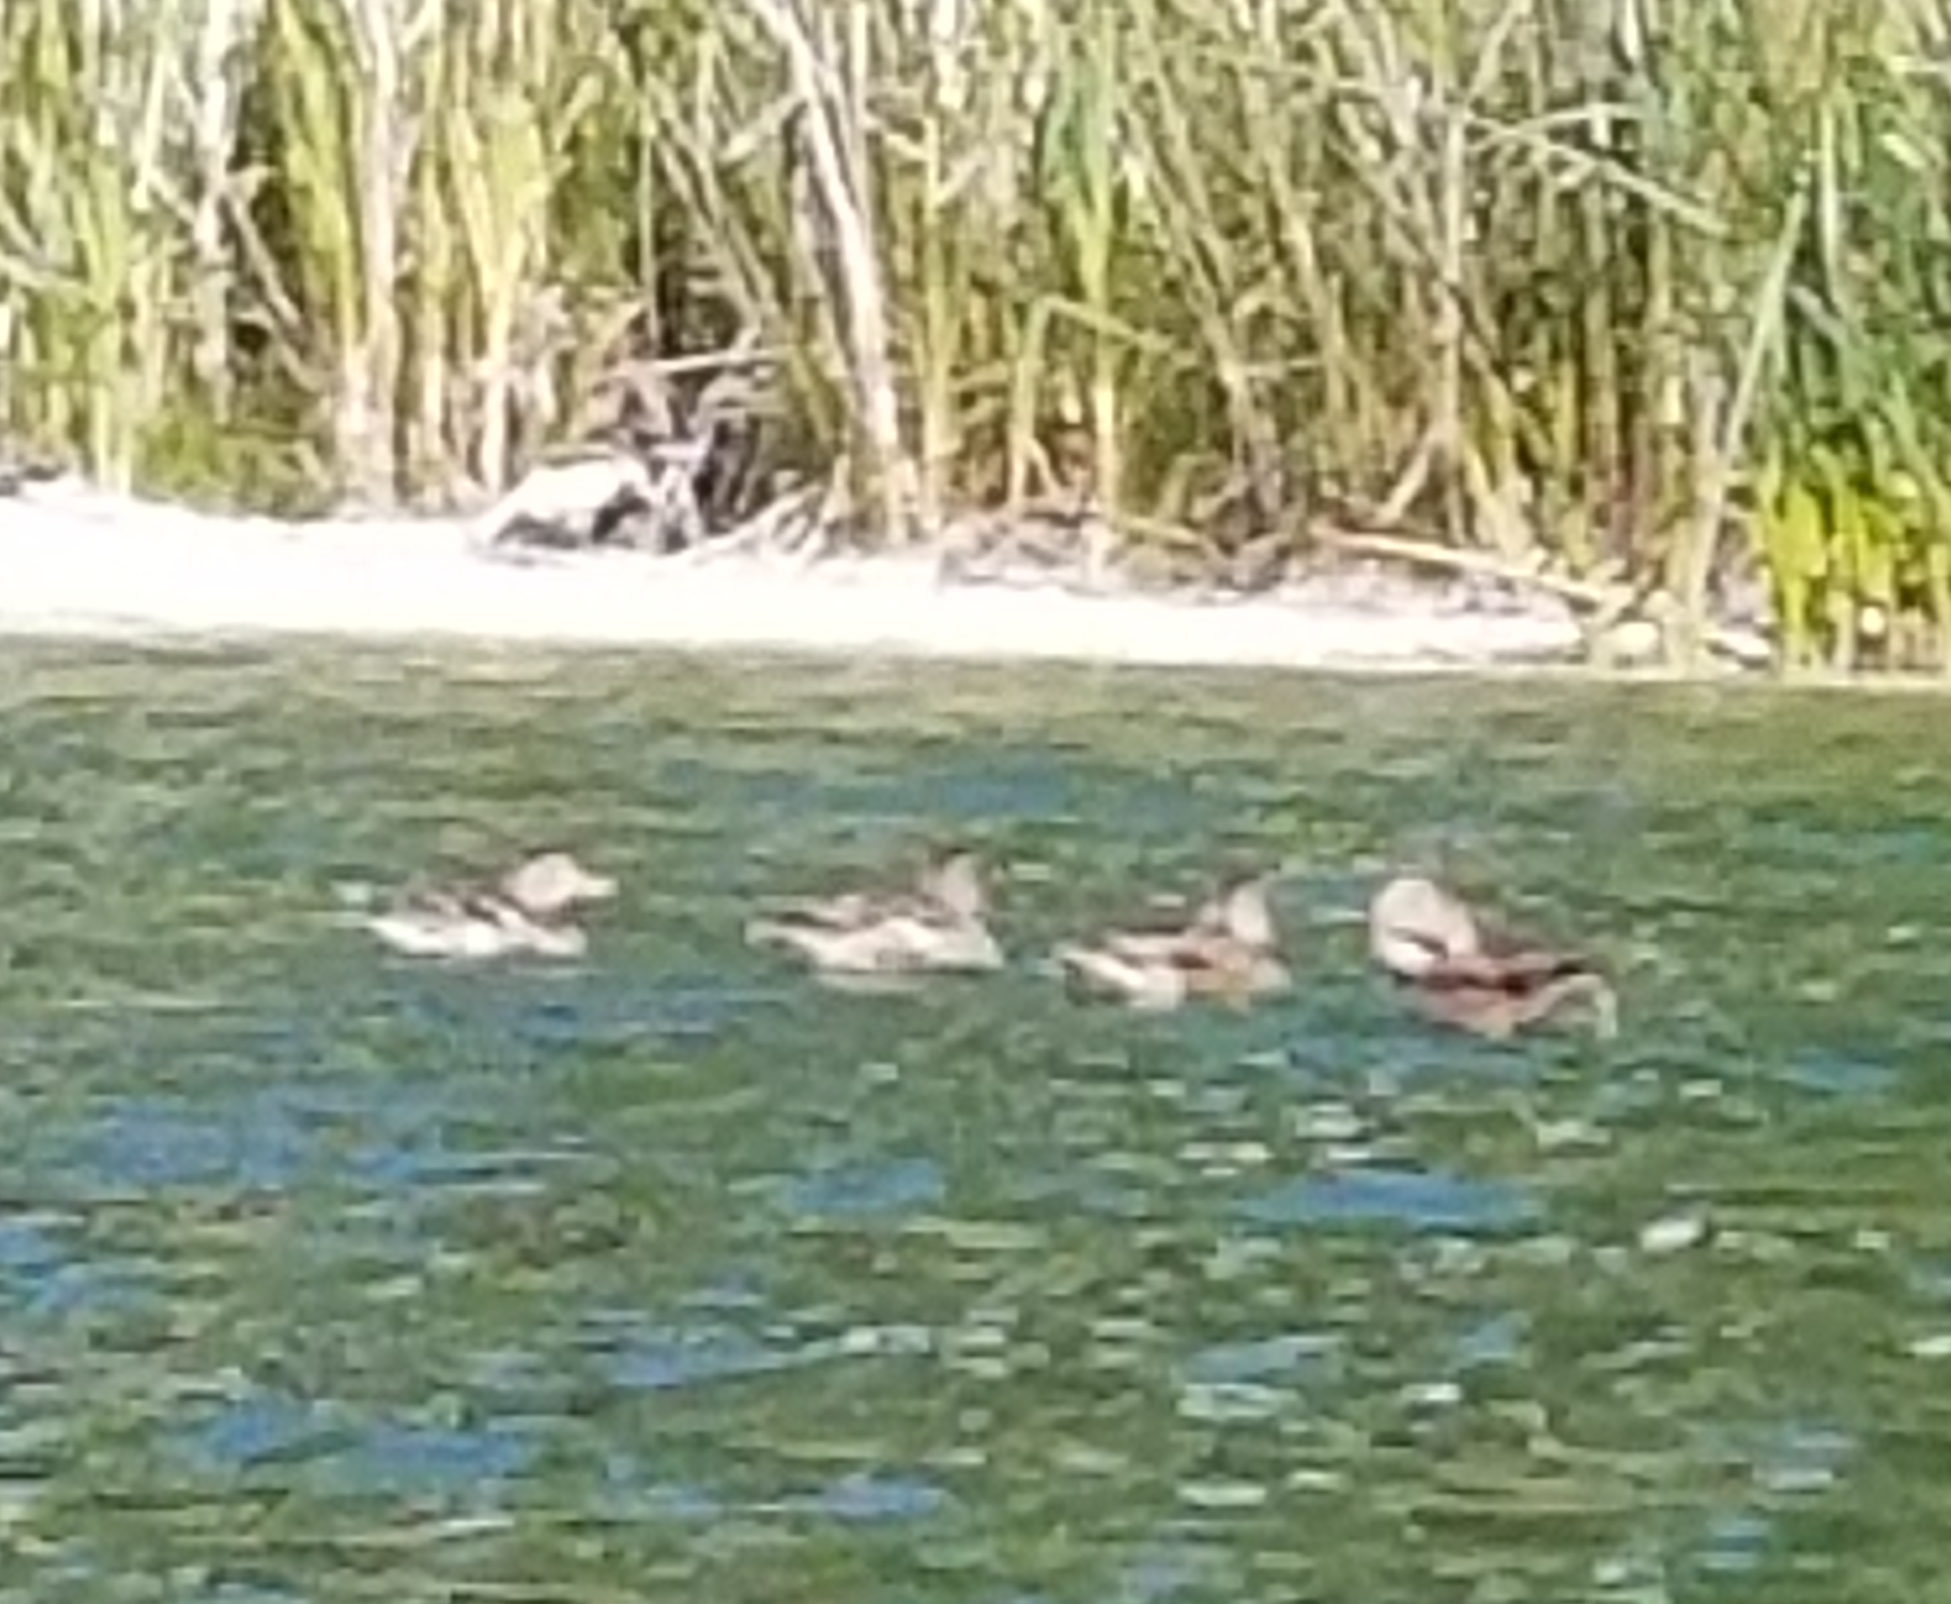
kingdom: Animalia
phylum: Chordata
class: Aves
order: Anseriformes
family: Anatidae
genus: Anas
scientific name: Anas platyrhynchos
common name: Mallard
